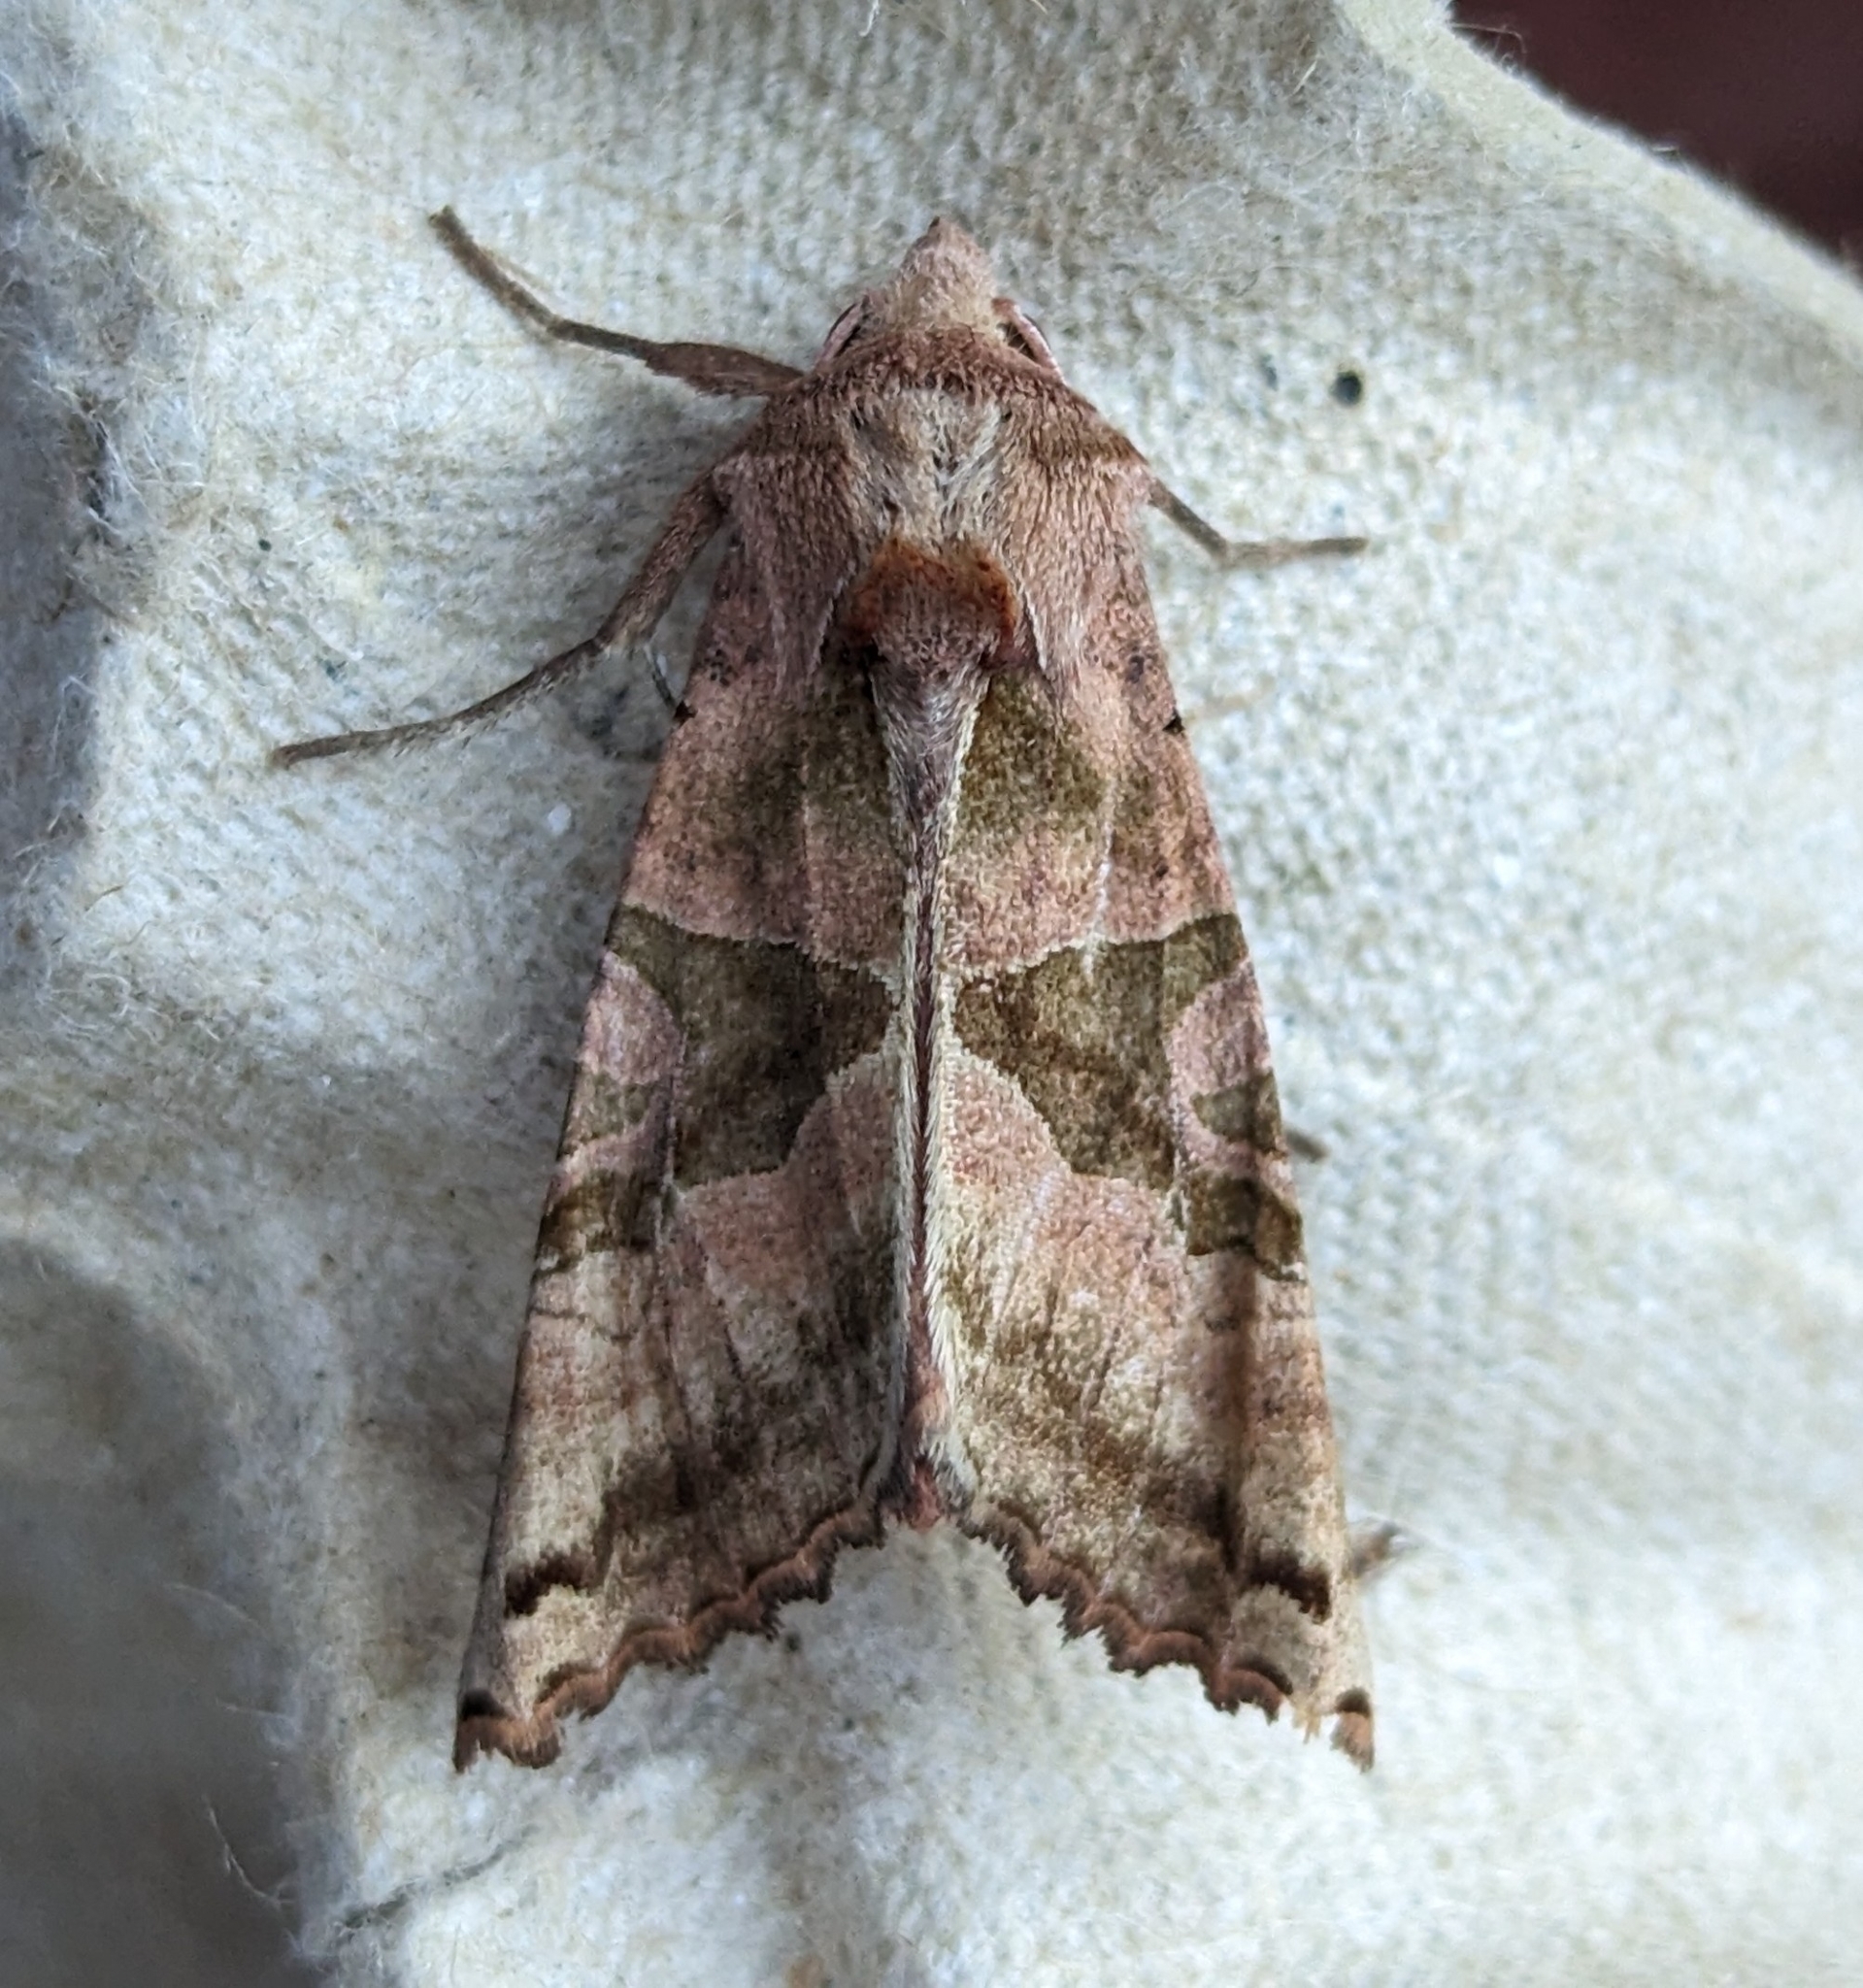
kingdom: Animalia
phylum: Arthropoda
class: Insecta
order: Lepidoptera
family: Noctuidae
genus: Phlogophora
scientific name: Phlogophora periculosa
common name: Brown angle shades
